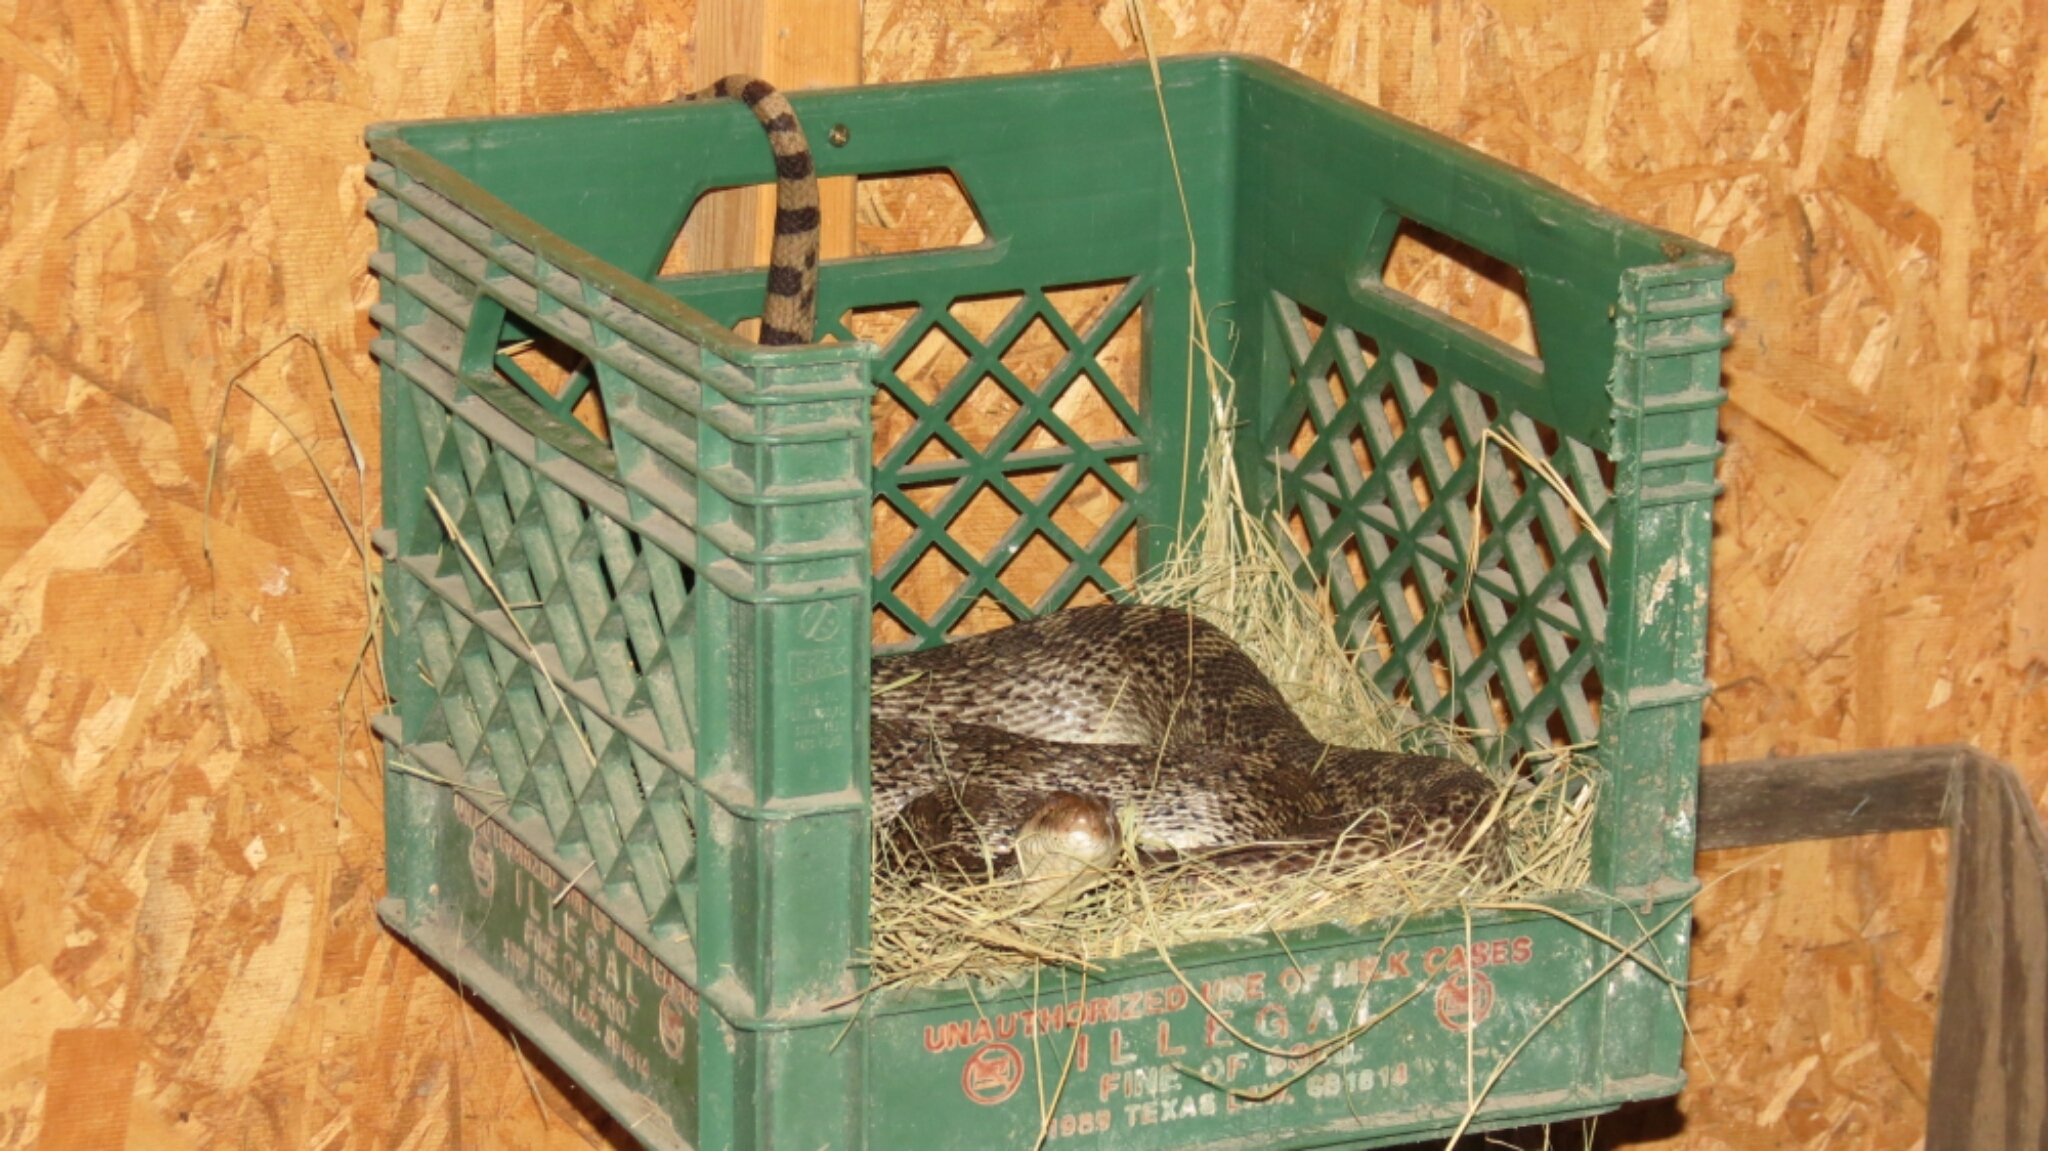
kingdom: Animalia
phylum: Chordata
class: Squamata
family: Colubridae
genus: Pituophis
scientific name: Pituophis catenifer
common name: Gopher snake
